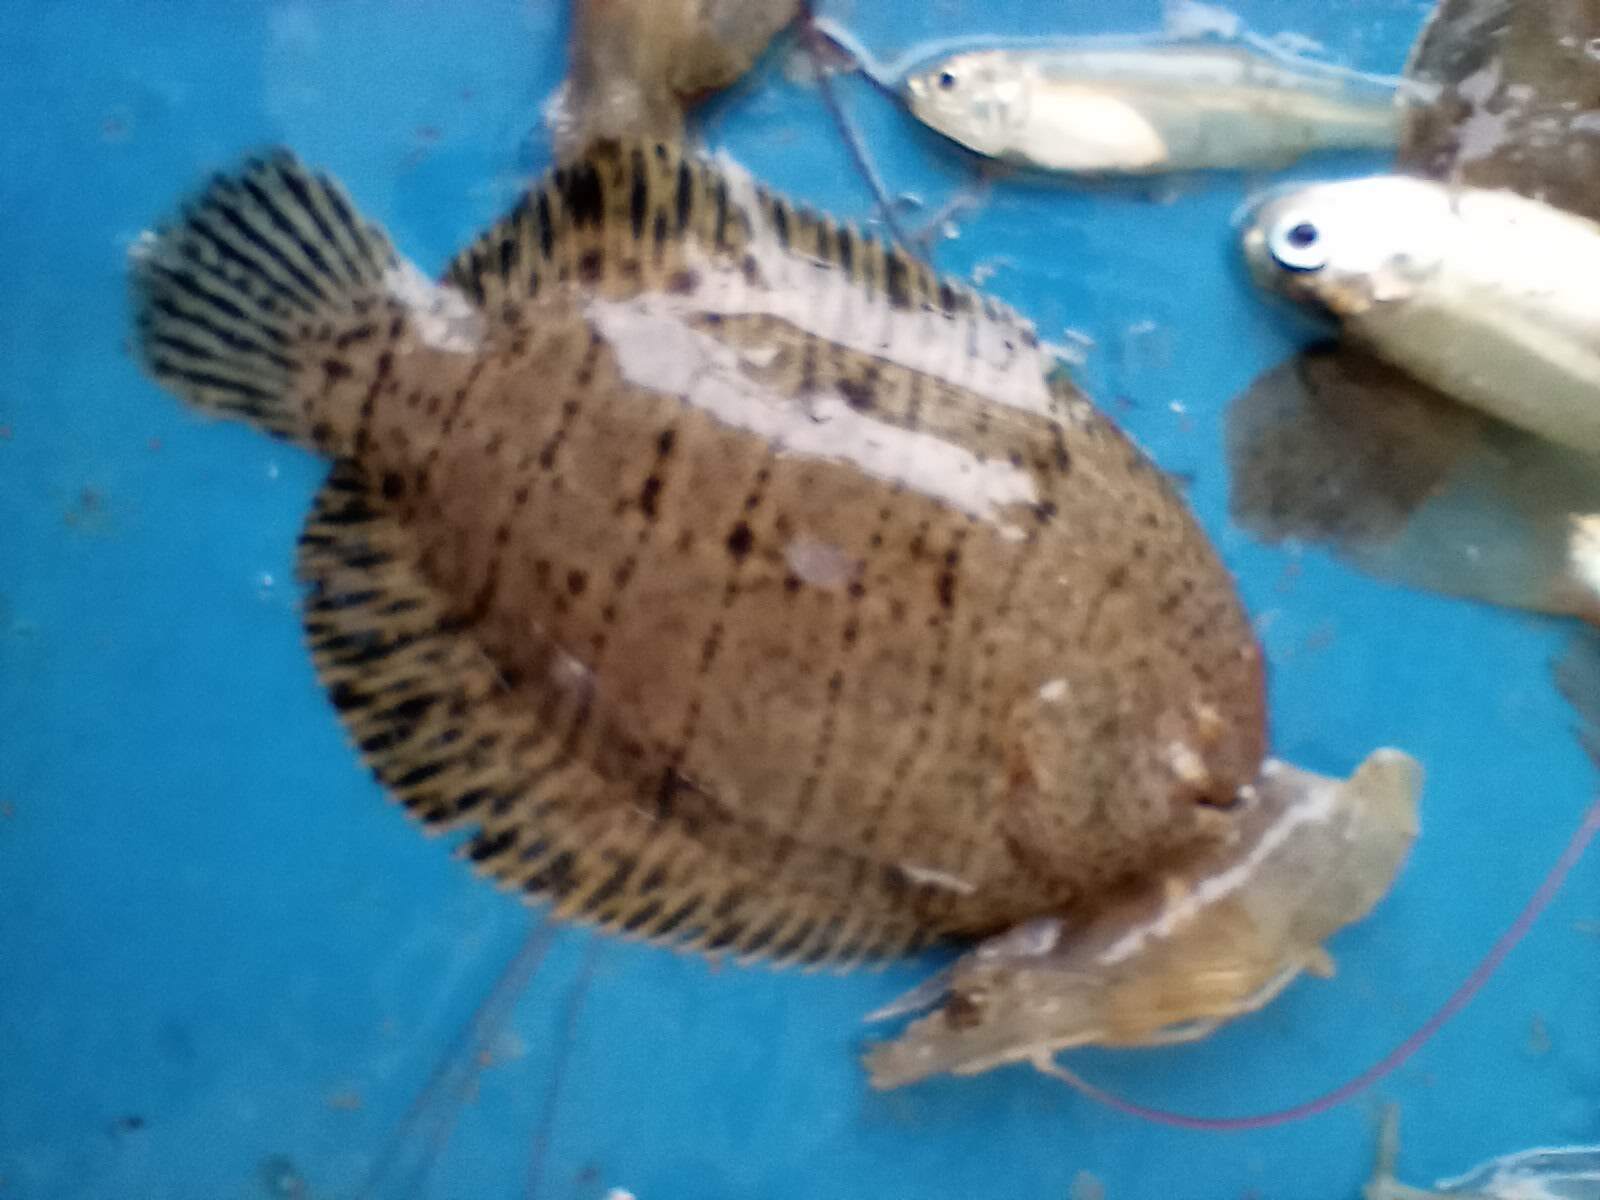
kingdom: Animalia
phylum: Chordata
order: Pleuronectiformes
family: Achiridae
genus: Trinectes
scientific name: Trinectes maculatus
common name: Hogchoker
